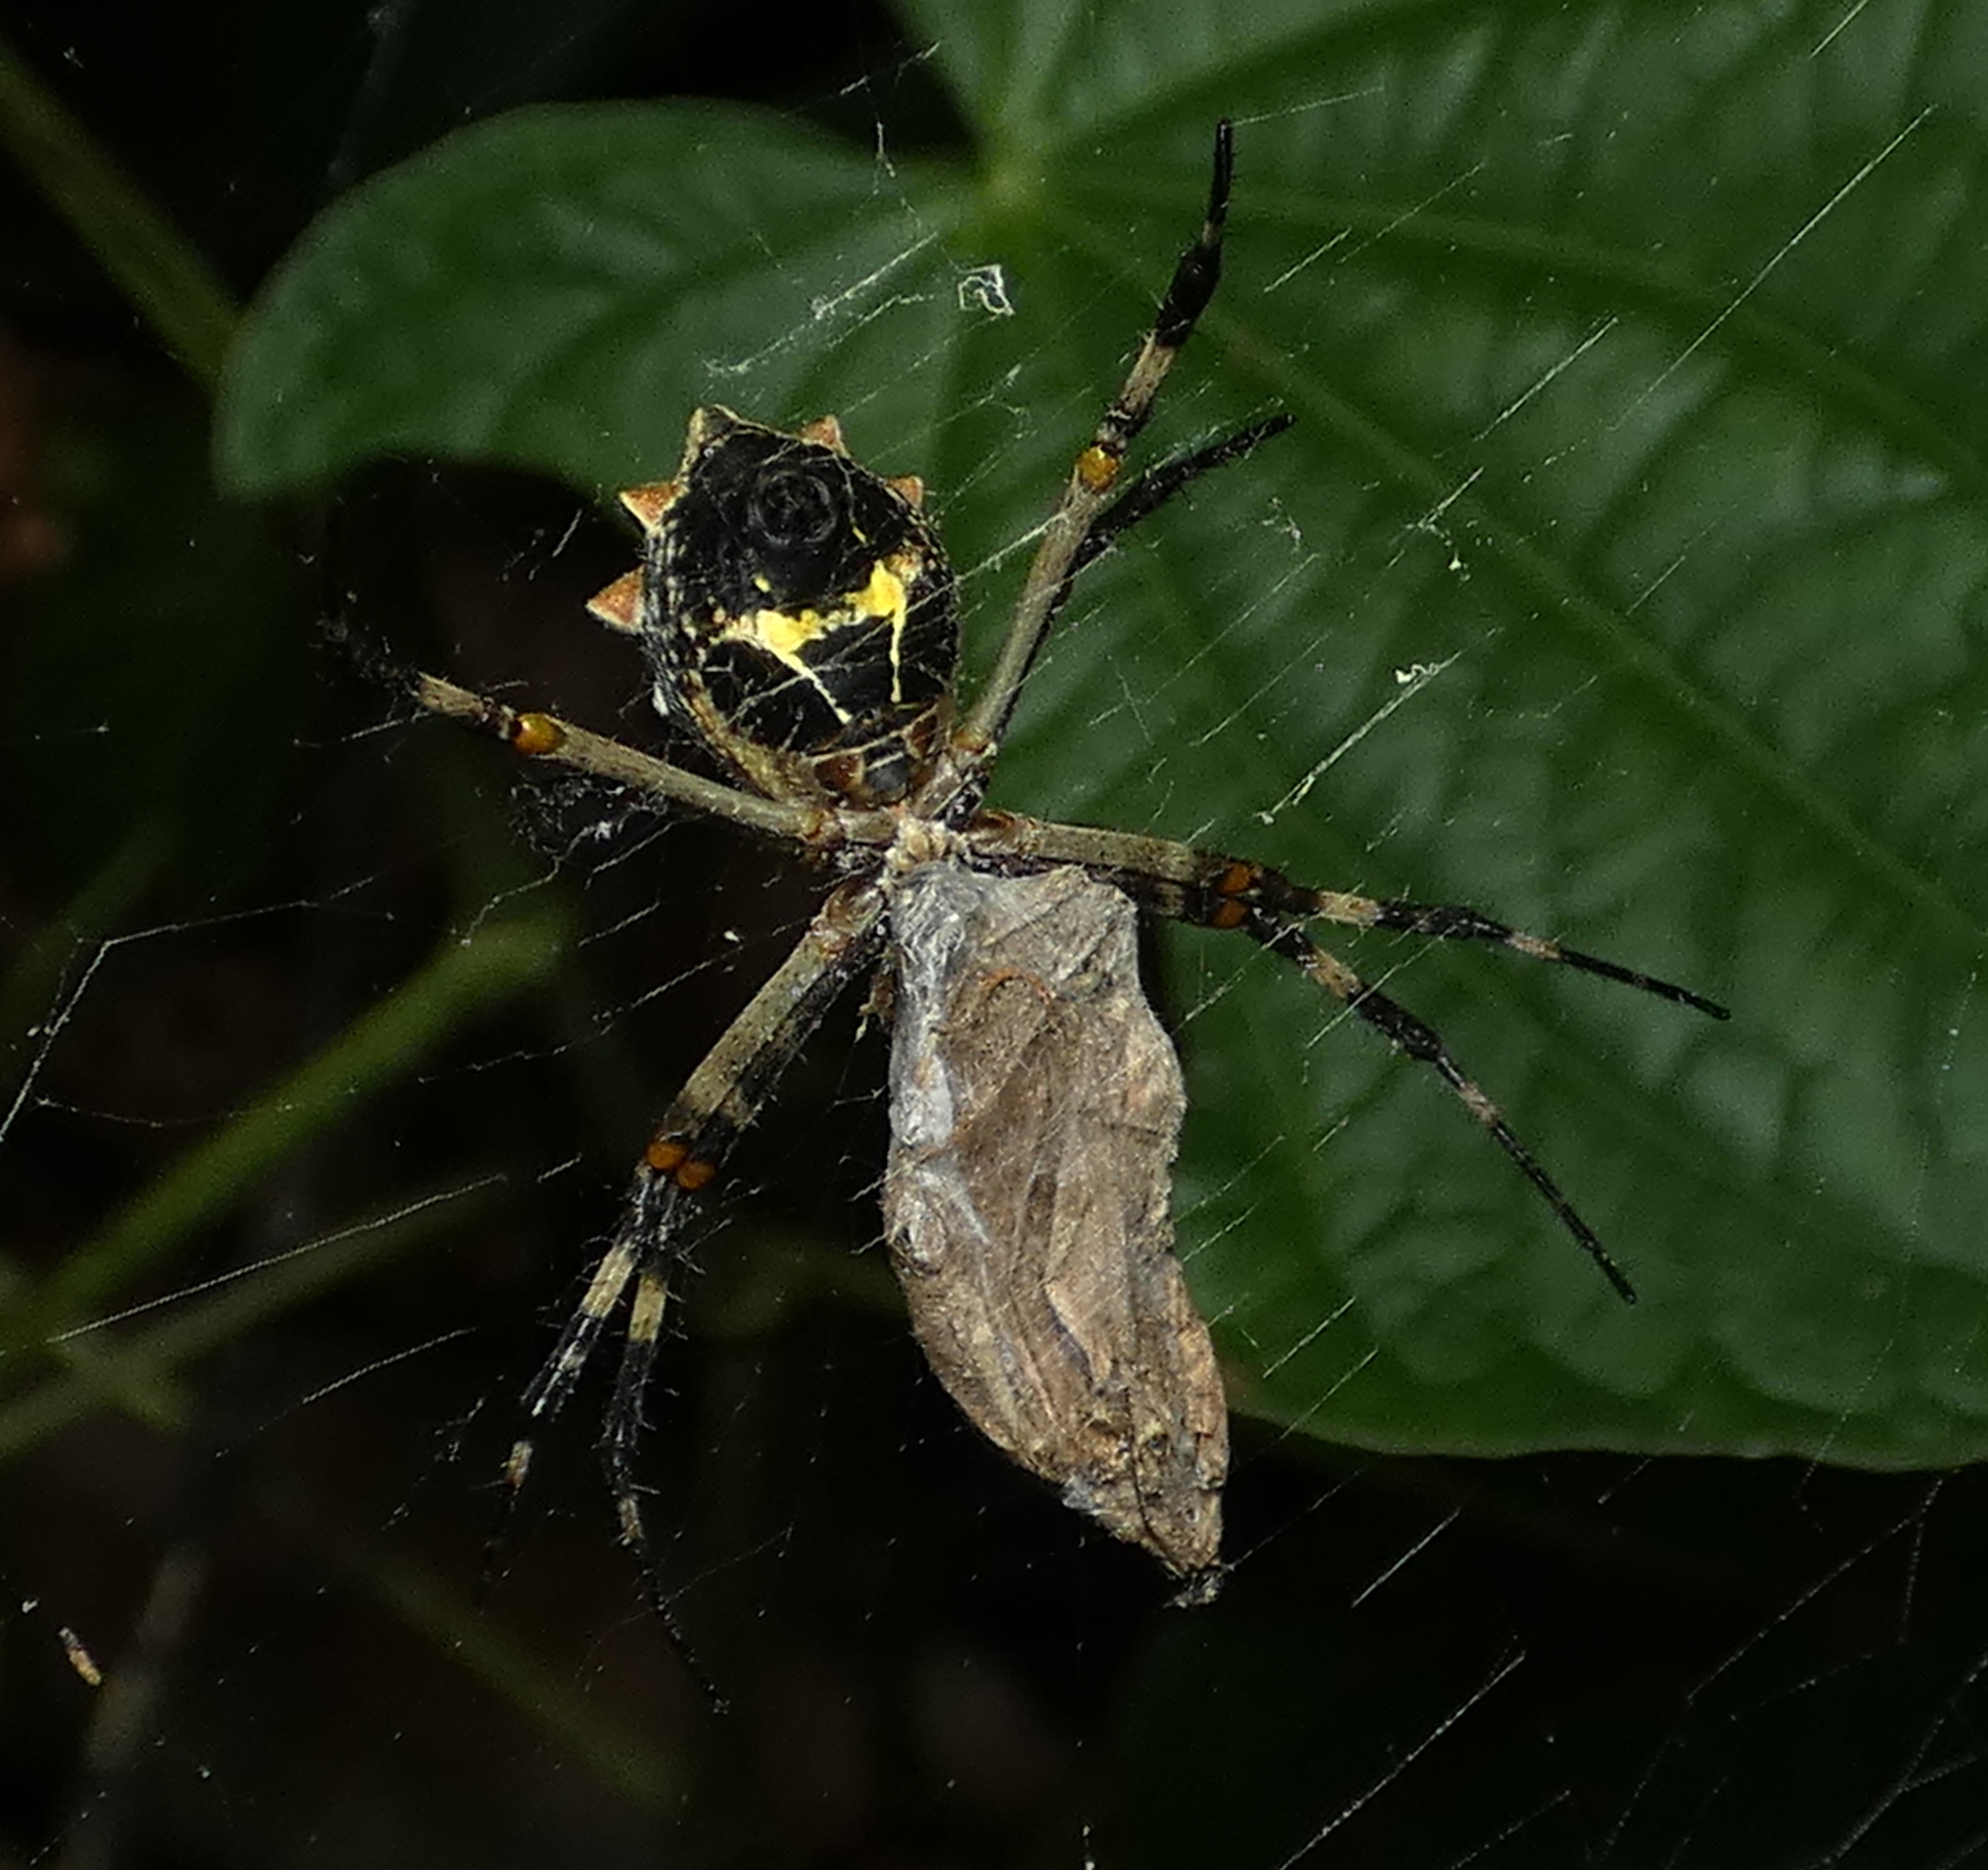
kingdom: Animalia
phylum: Arthropoda
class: Arachnida
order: Araneae
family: Araneidae
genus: Argiope
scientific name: Argiope argentata
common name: Orb weavers
